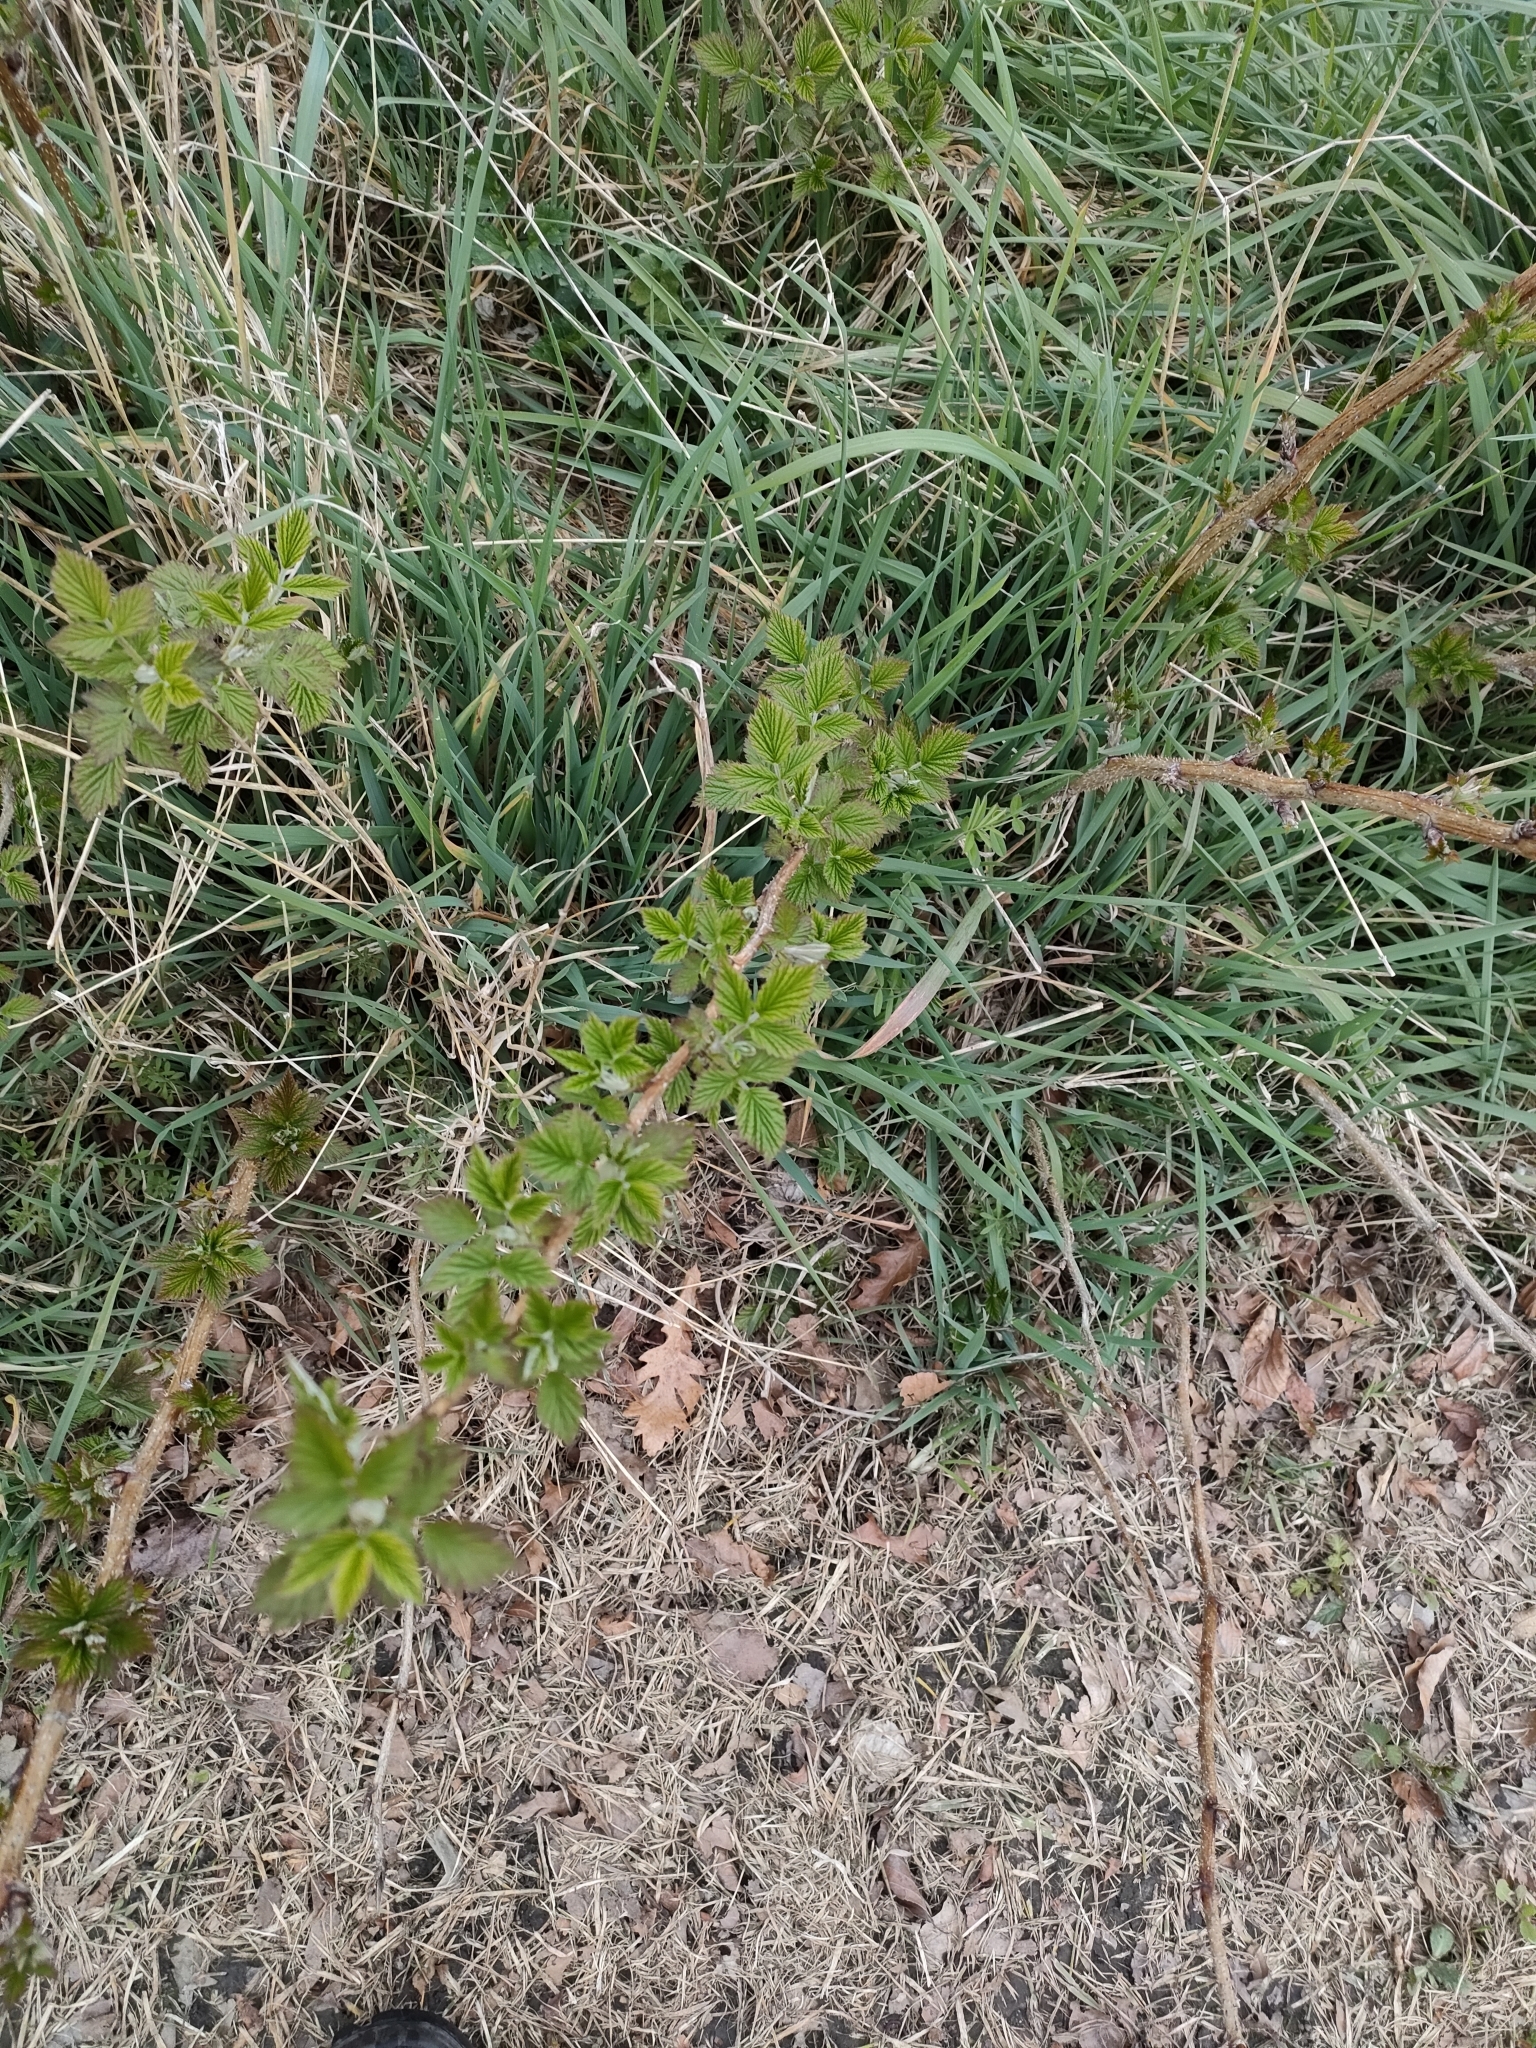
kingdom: Plantae
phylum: Tracheophyta
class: Magnoliopsida
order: Rosales
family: Rosaceae
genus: Rubus
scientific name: Rubus idaeus
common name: Raspberry
